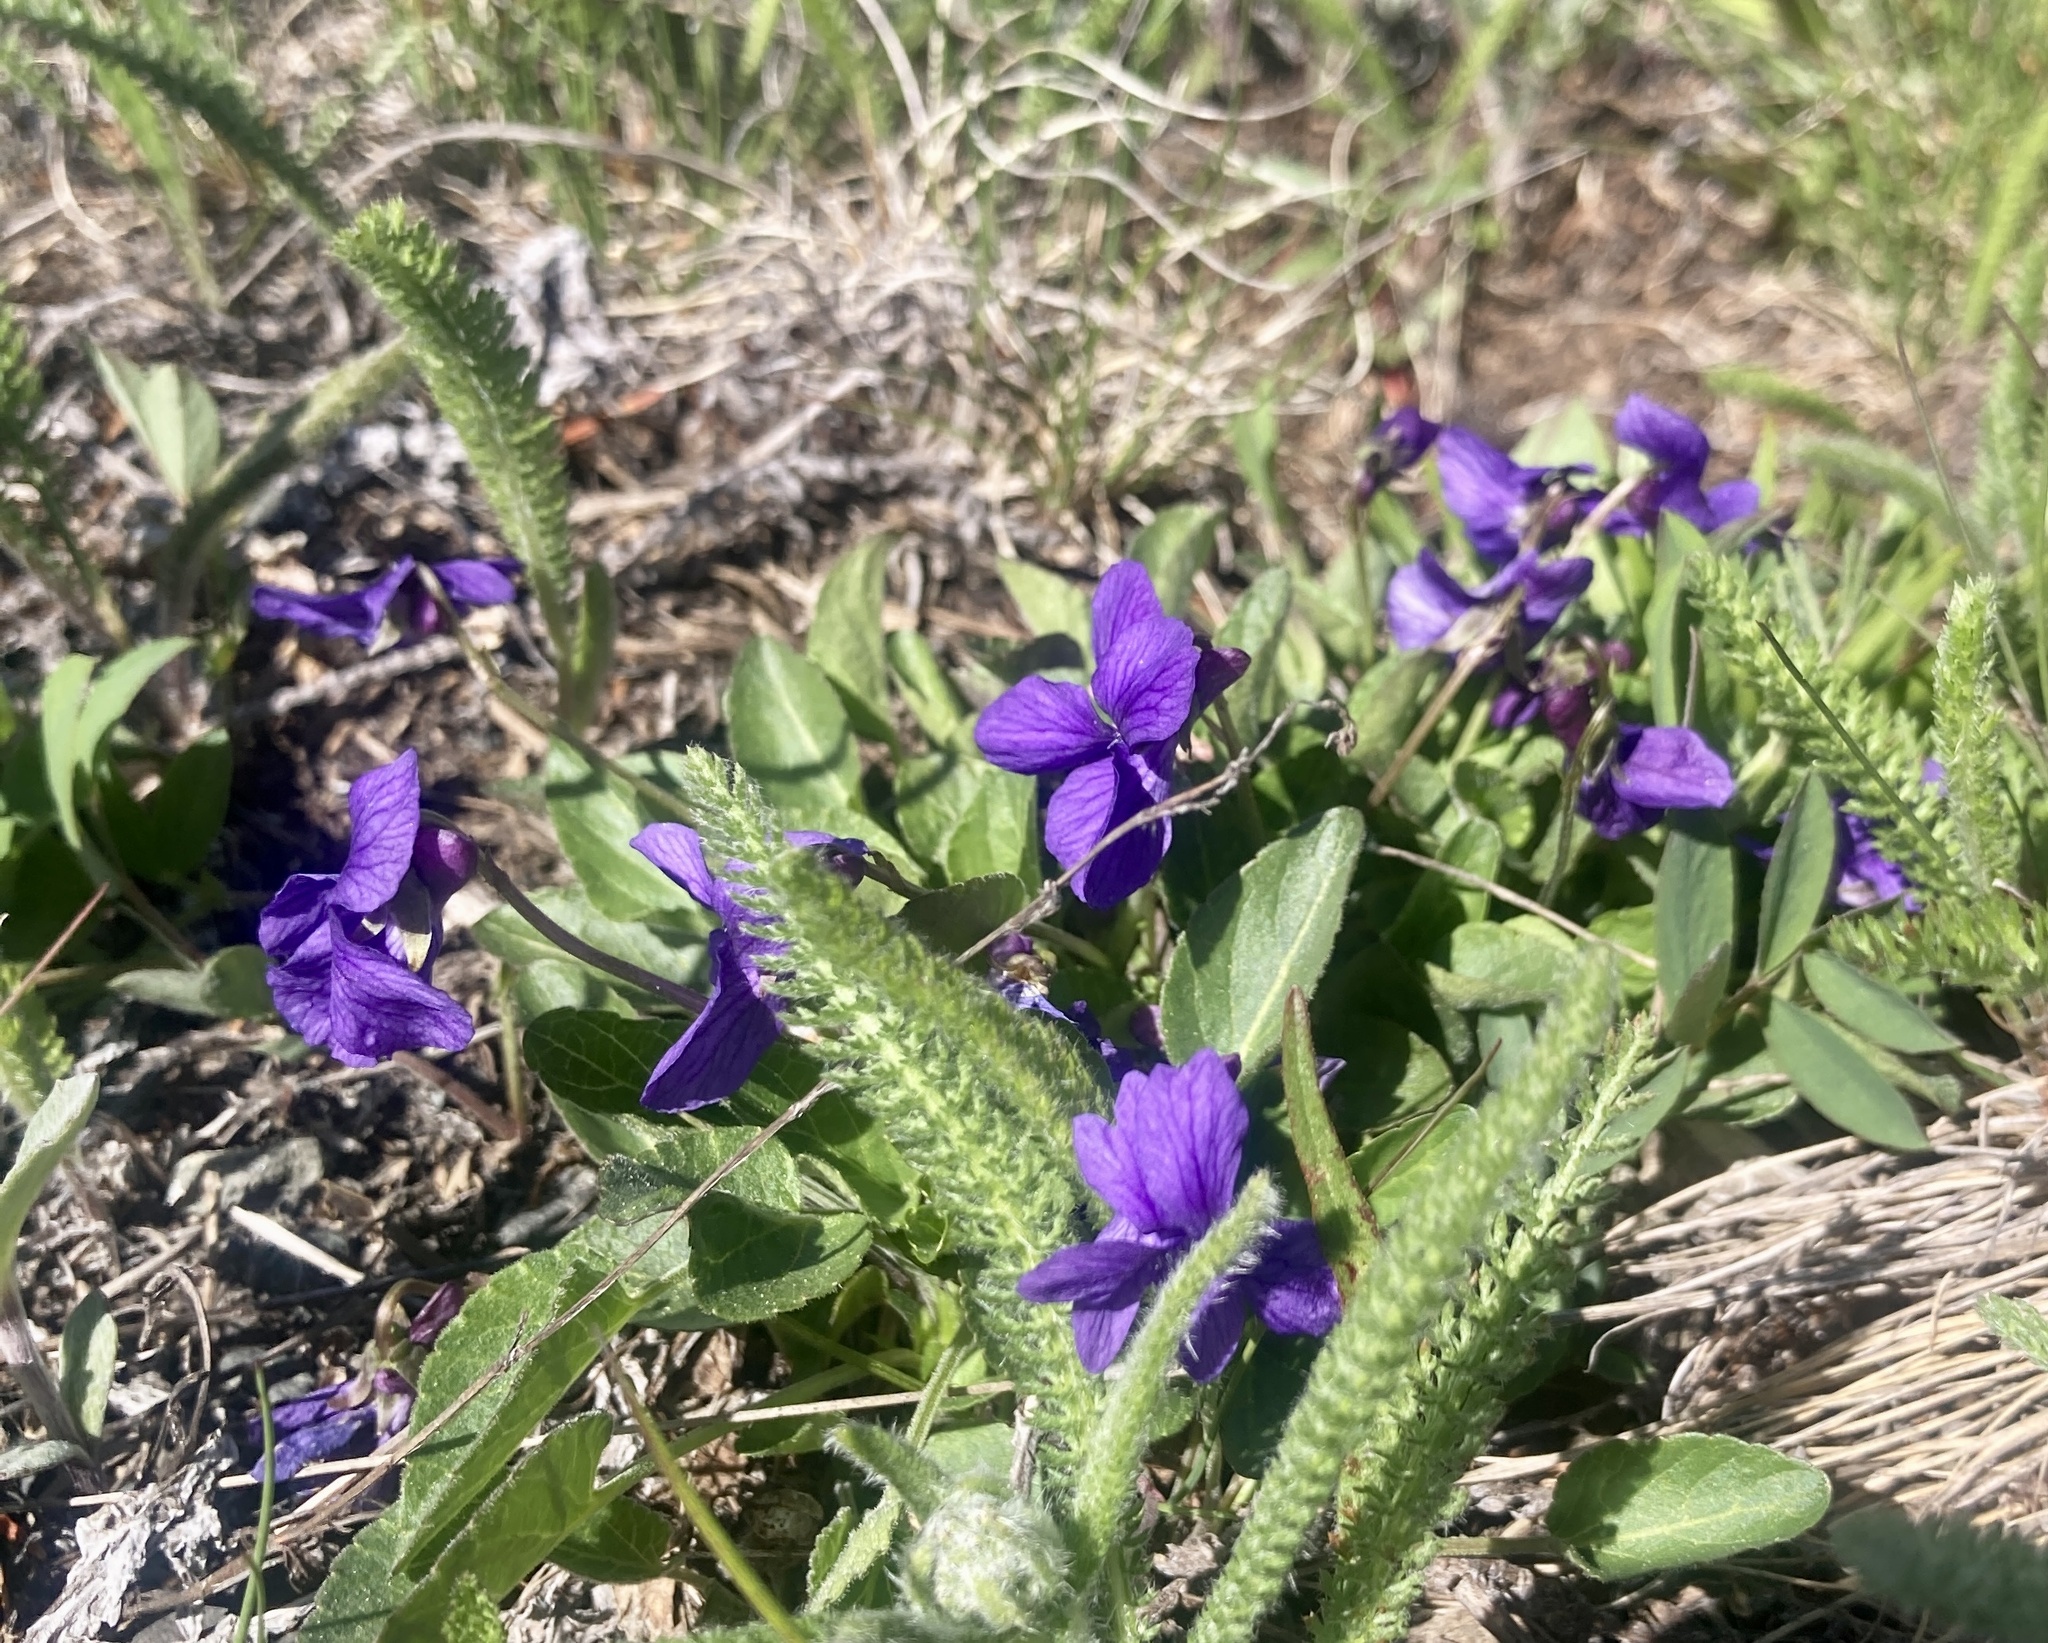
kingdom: Plantae
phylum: Tracheophyta
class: Magnoliopsida
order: Malpighiales
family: Violaceae
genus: Viola
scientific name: Viola adunca
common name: Sand violet
